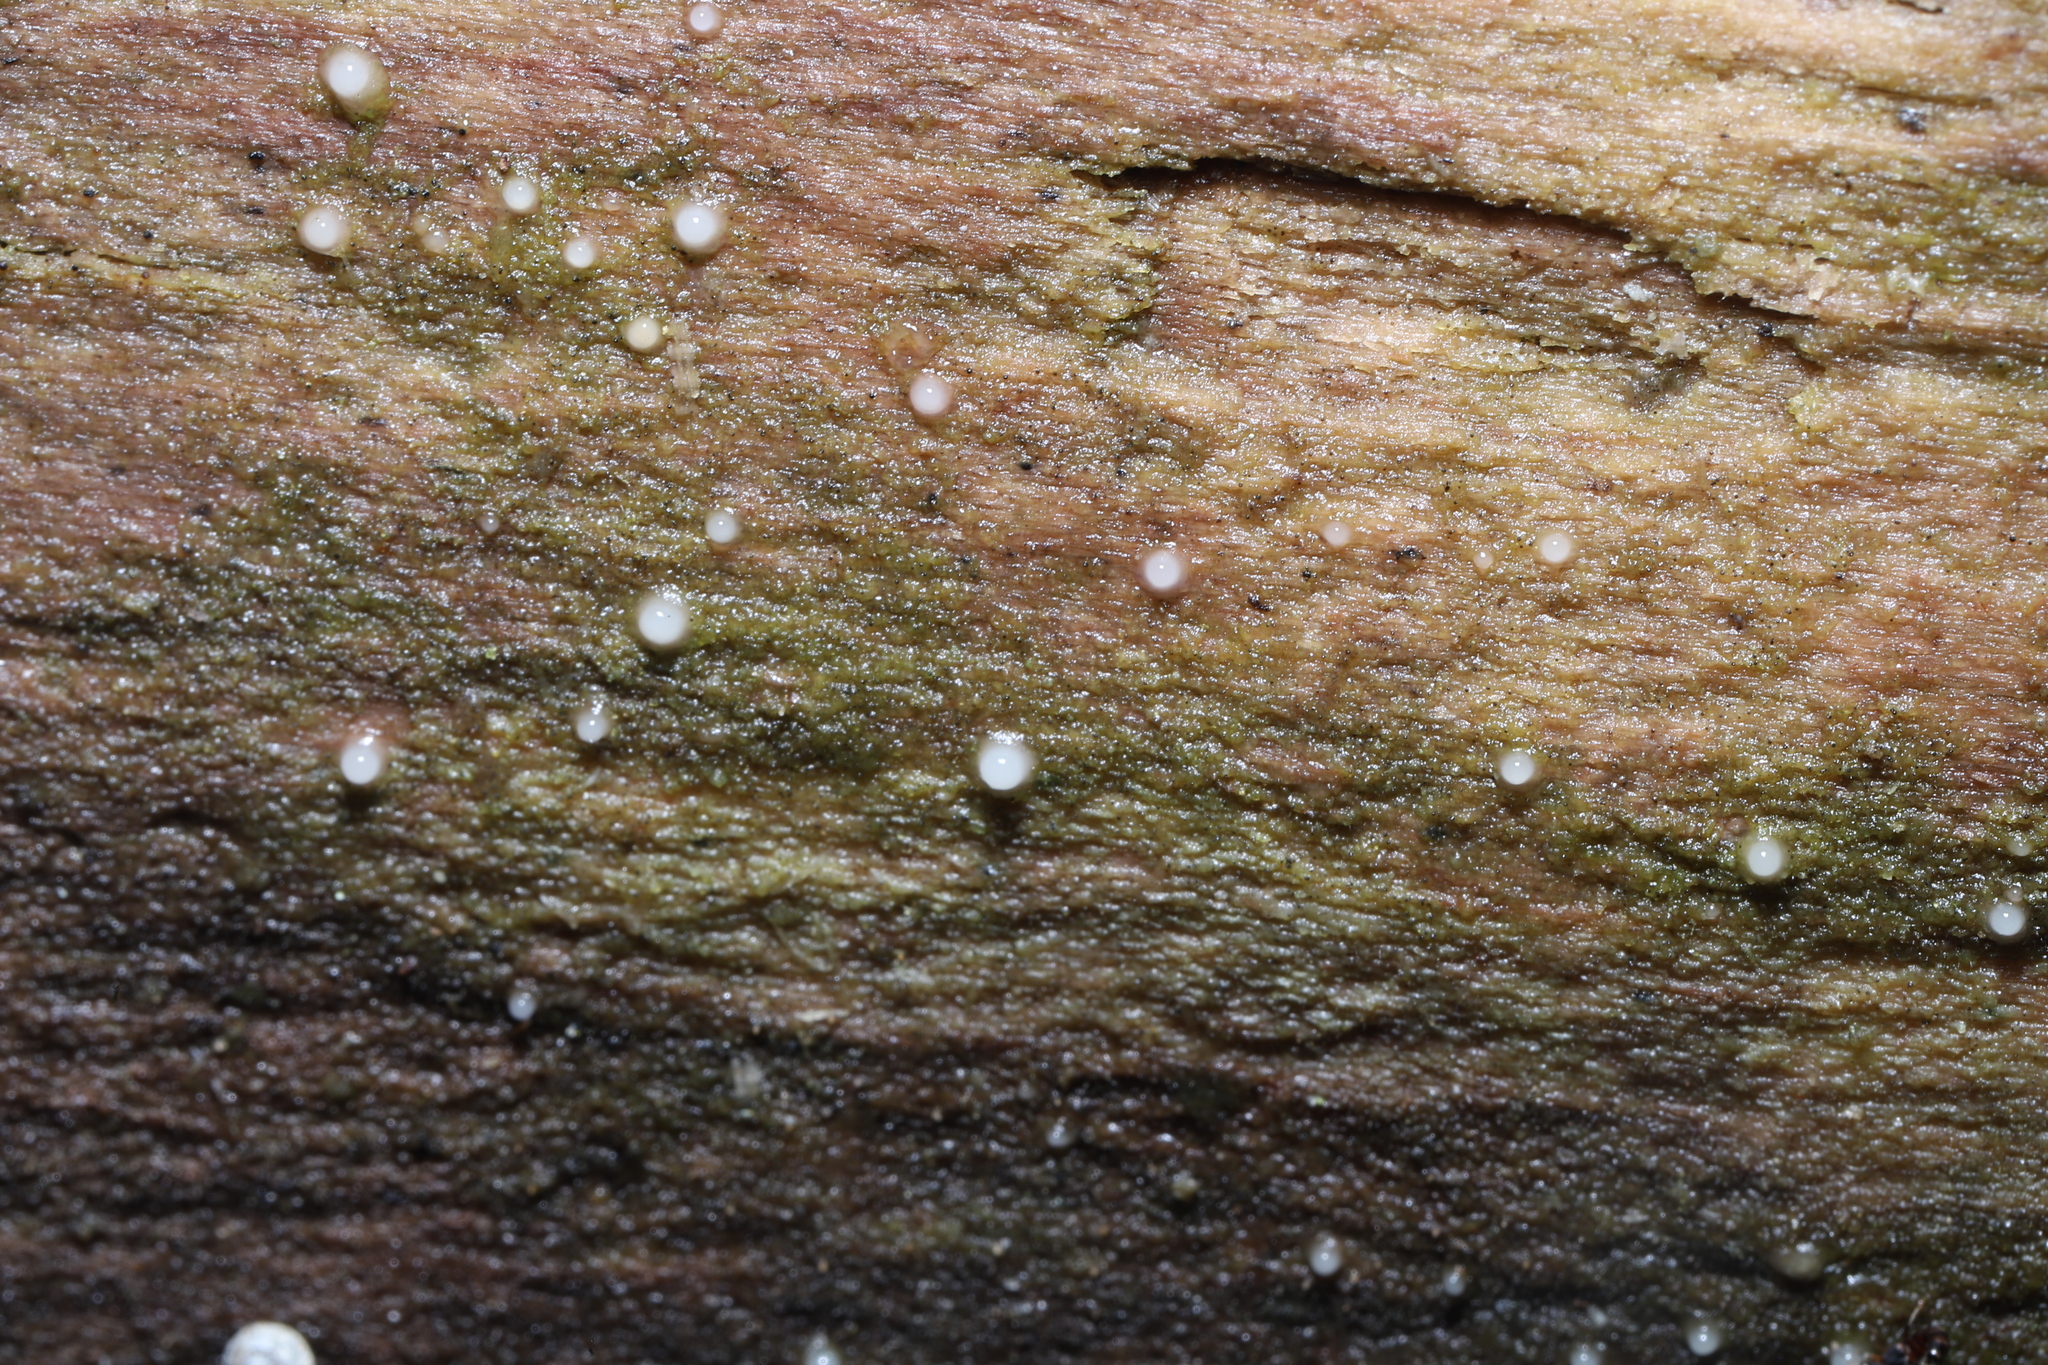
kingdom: Fungi
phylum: Basidiomycota
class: Atractiellomycetes
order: Atractiellales
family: Phleogenaceae
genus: Helicogloea
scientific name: Helicogloea compressa
